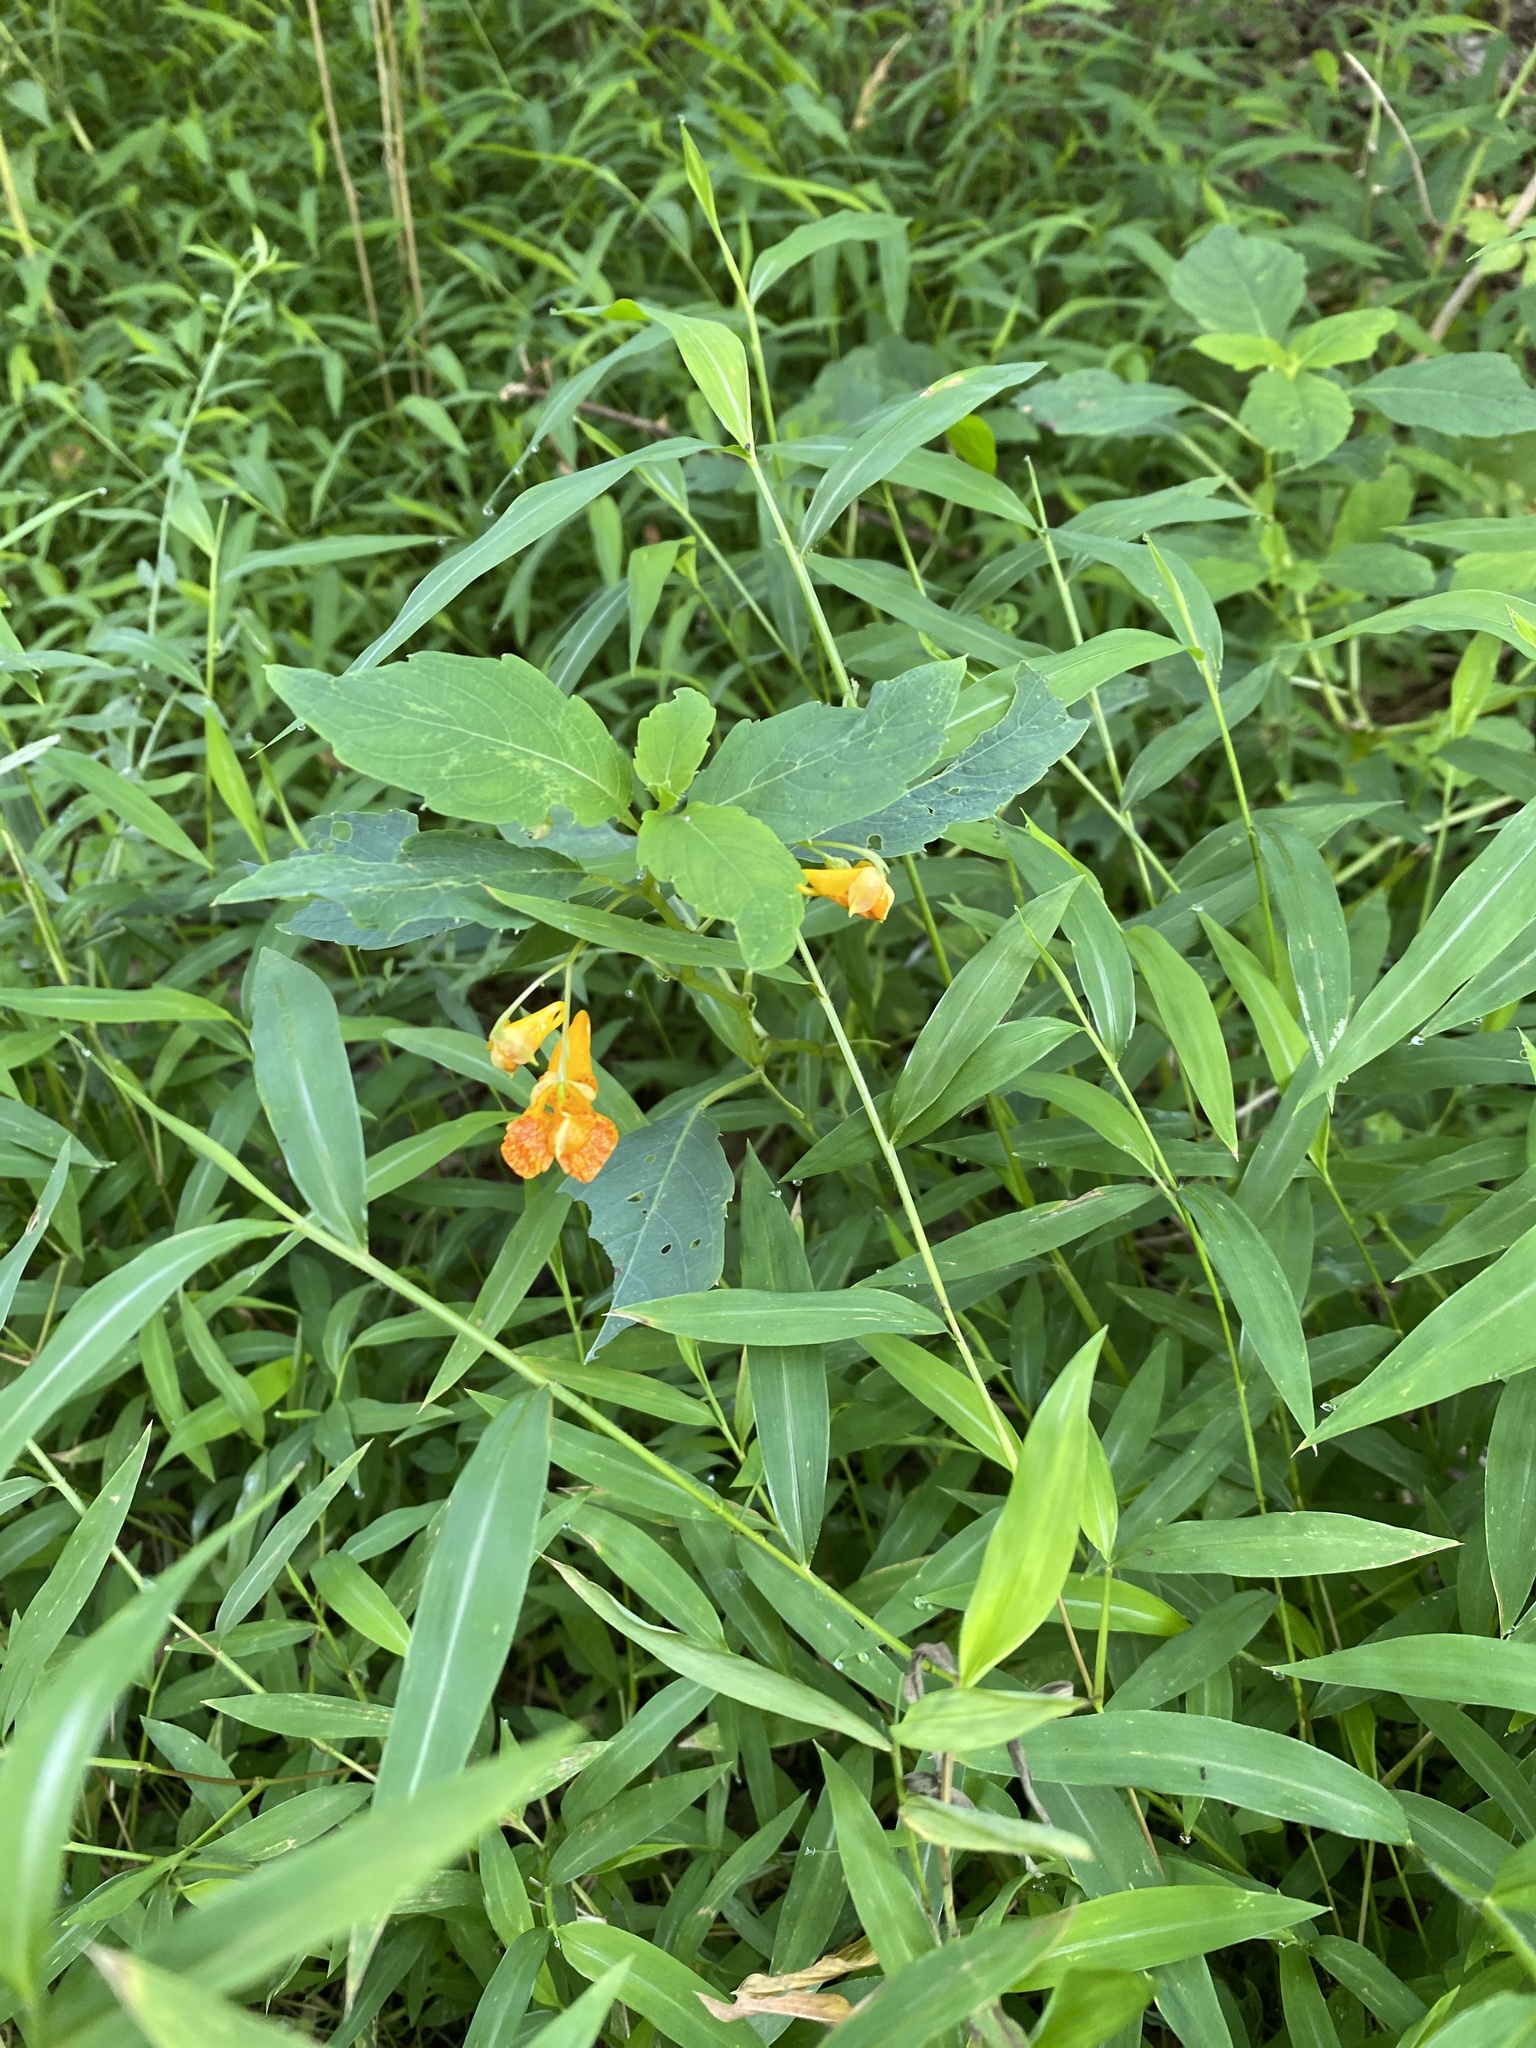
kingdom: Plantae
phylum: Tracheophyta
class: Magnoliopsida
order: Ericales
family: Balsaminaceae
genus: Impatiens
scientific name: Impatiens capensis
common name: Orange balsam
